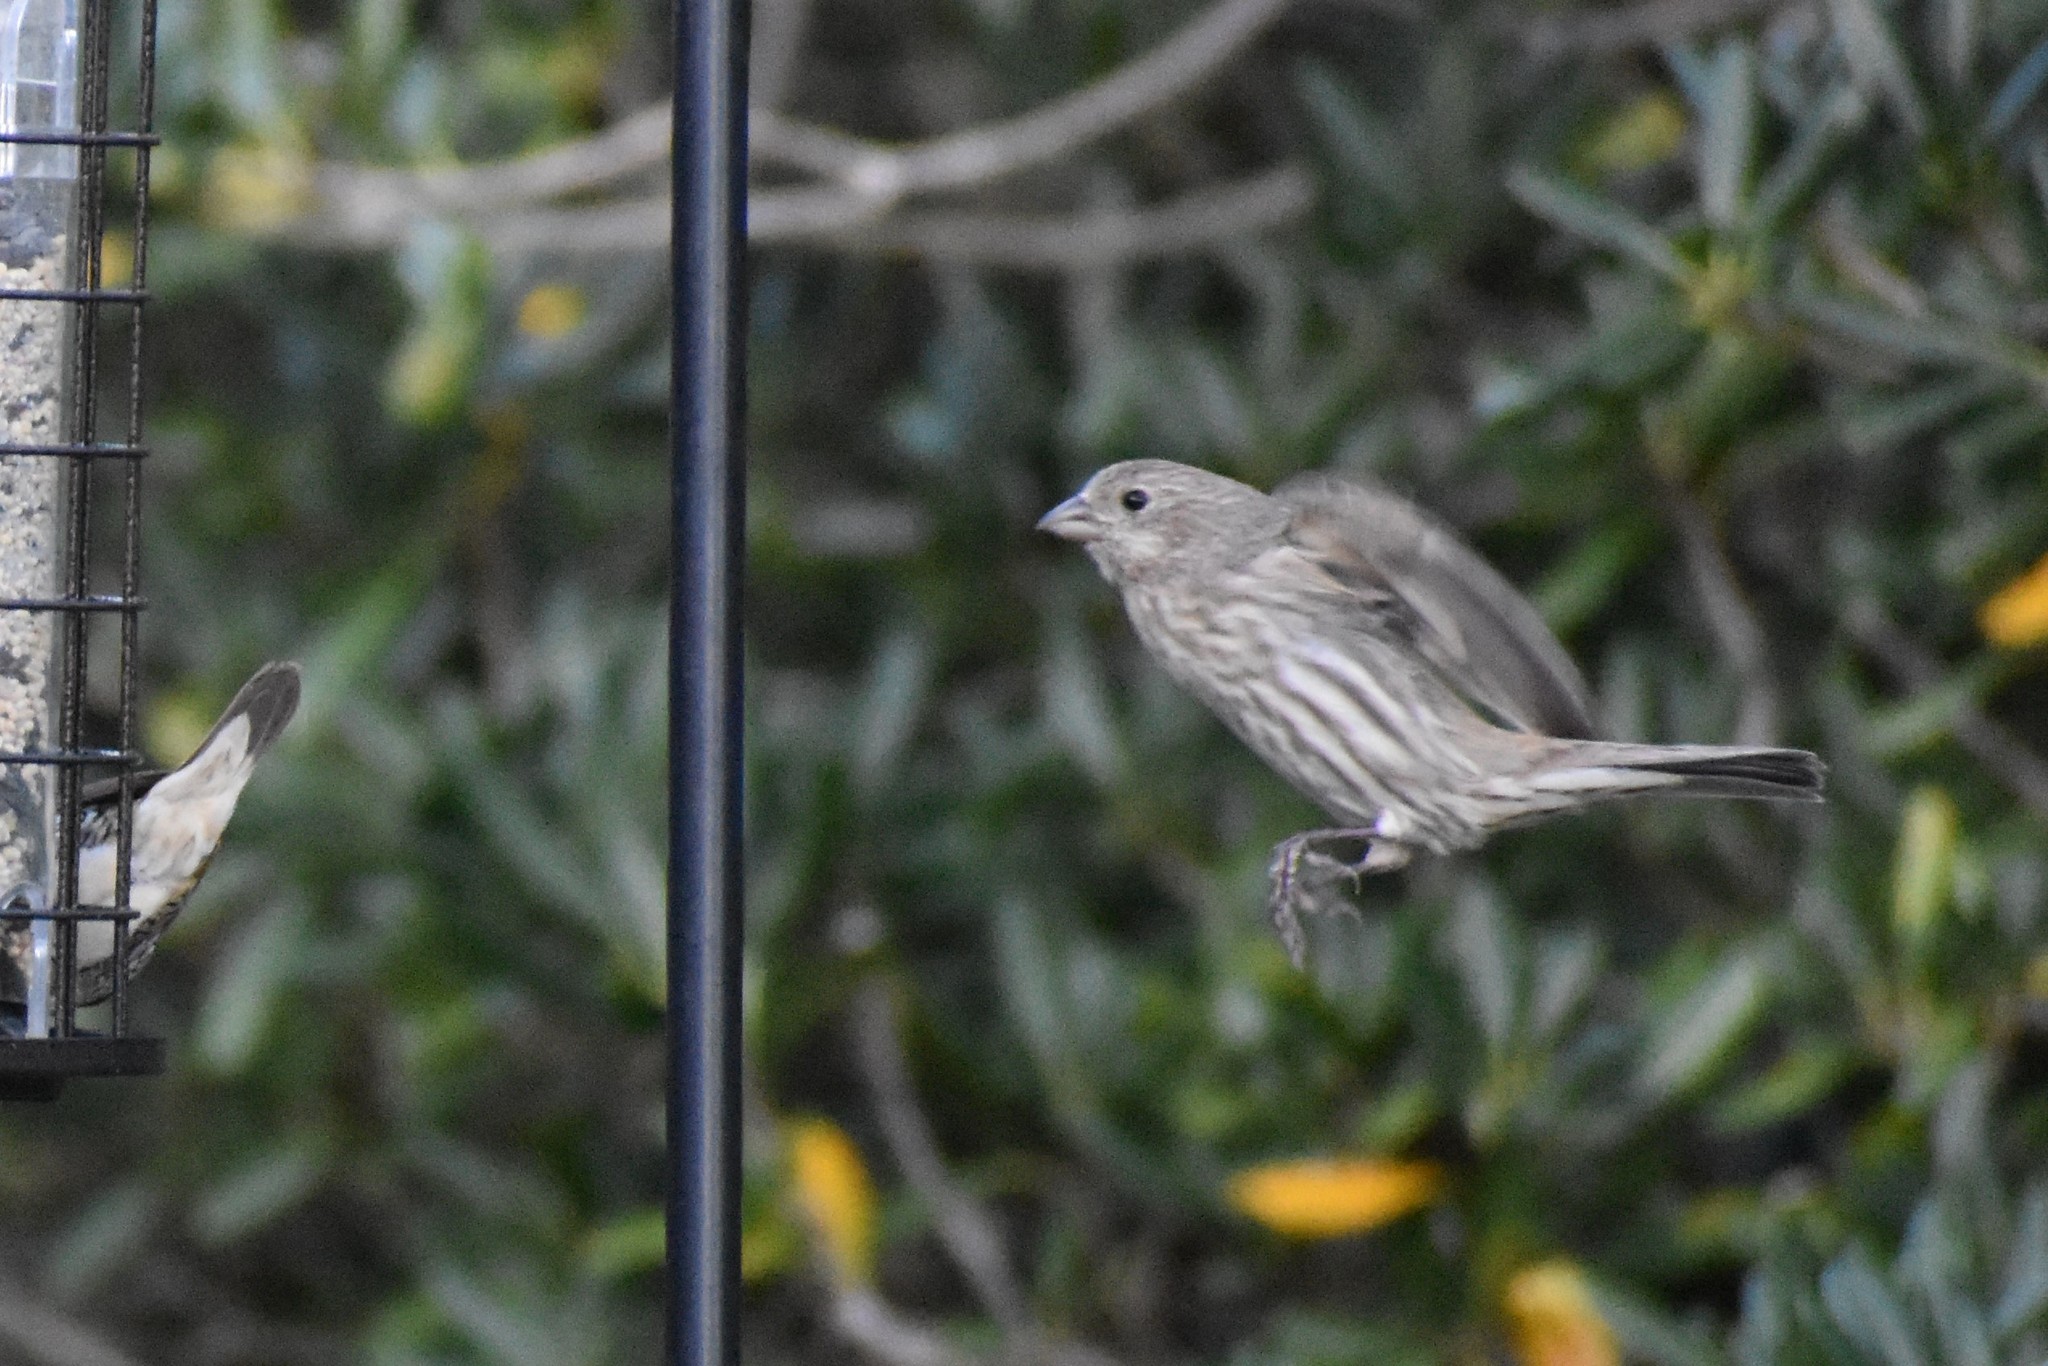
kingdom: Animalia
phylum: Chordata
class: Aves
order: Passeriformes
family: Fringillidae
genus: Haemorhous
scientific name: Haemorhous mexicanus
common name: House finch
